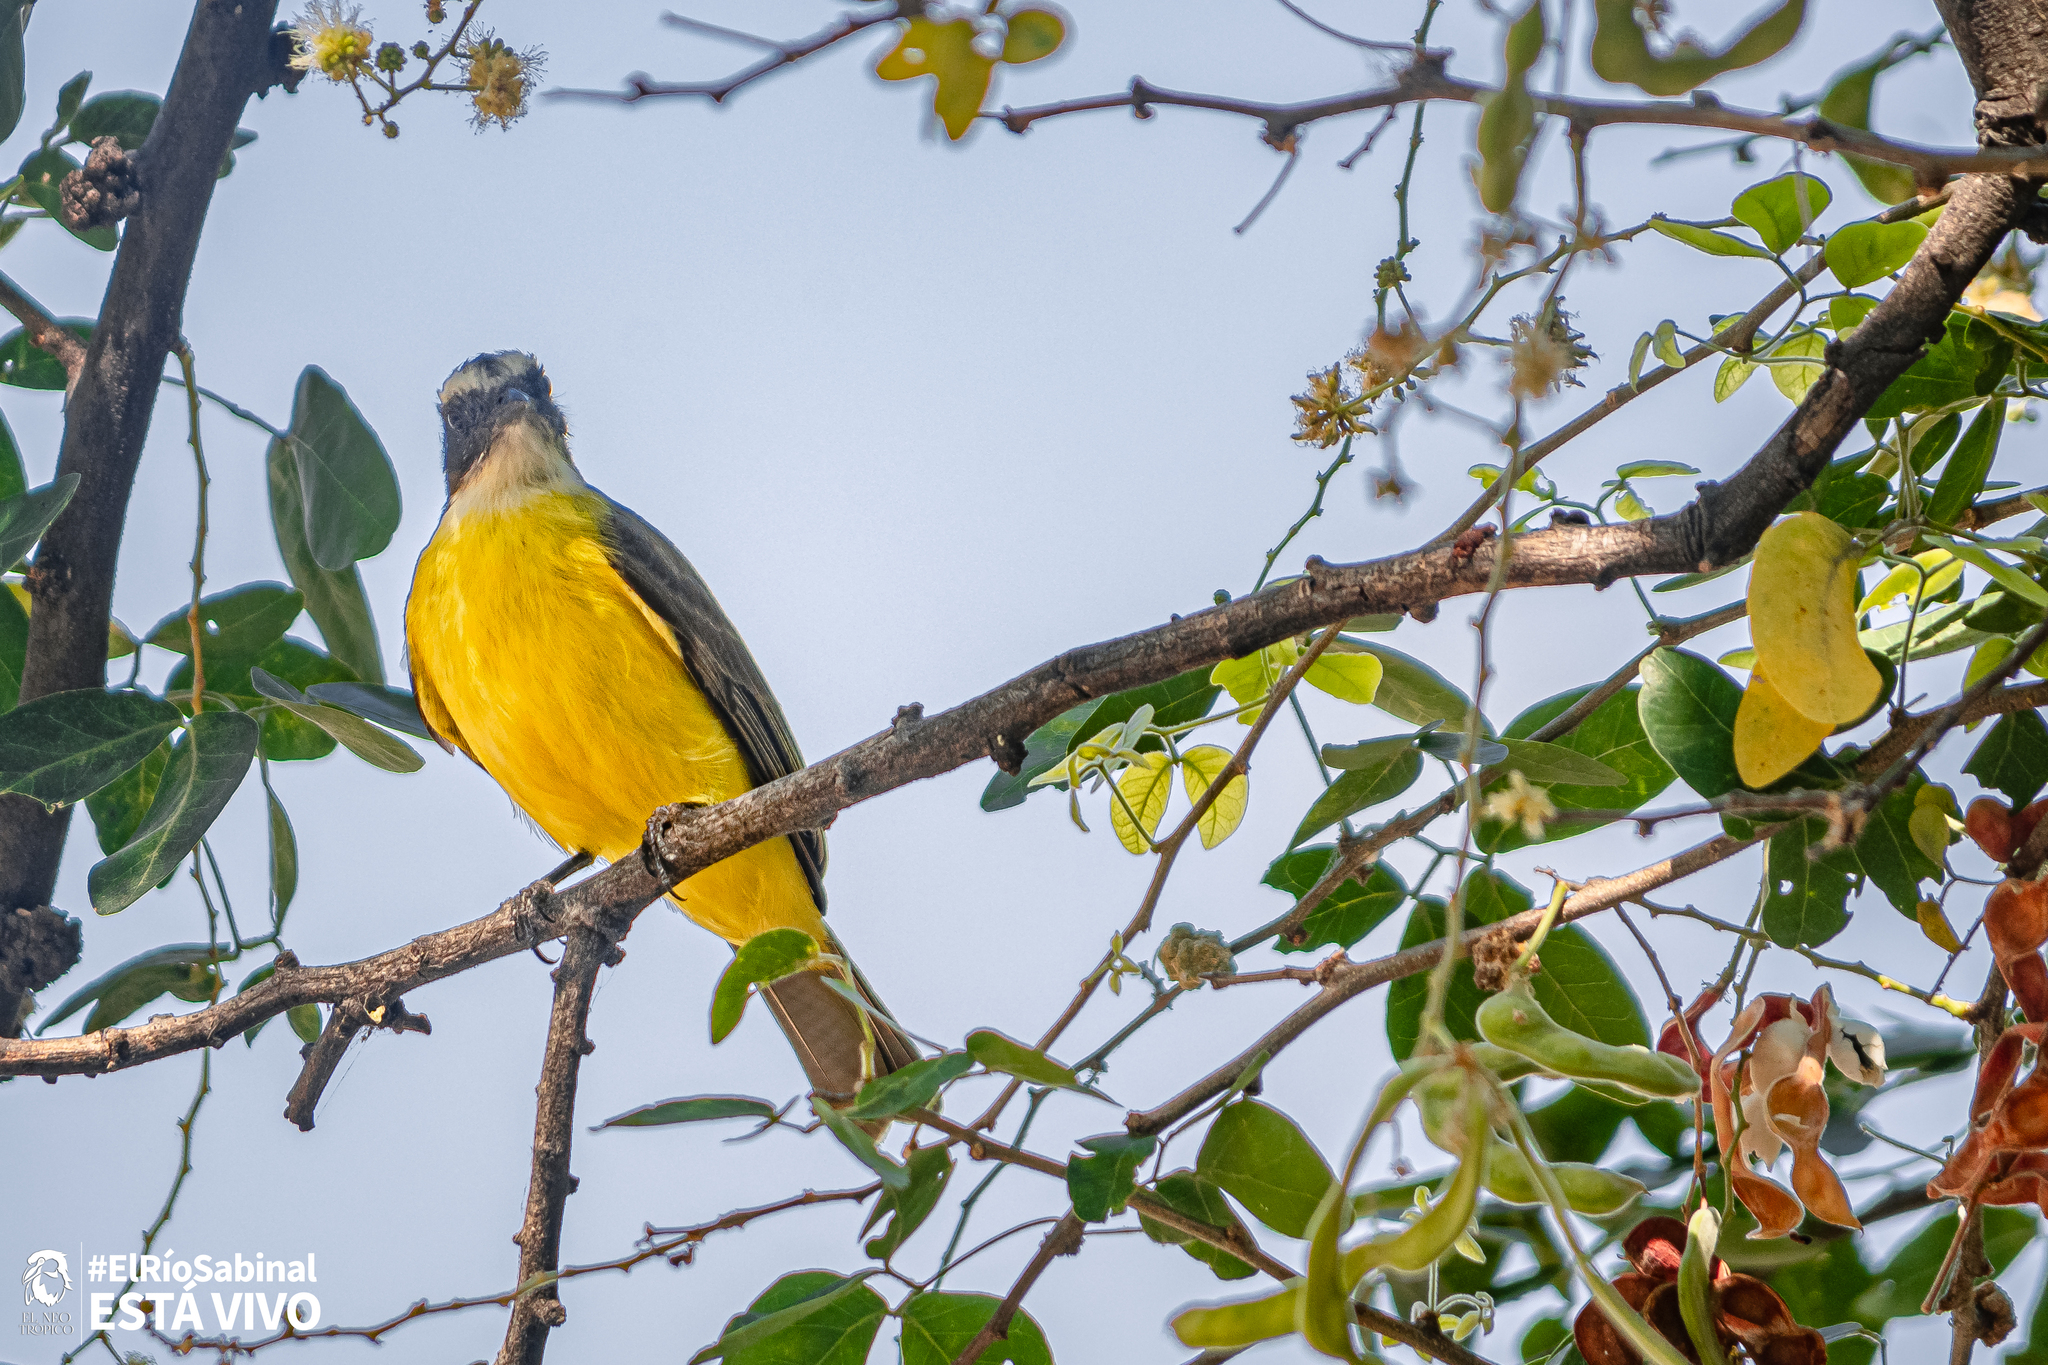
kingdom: Animalia
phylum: Chordata
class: Aves
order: Passeriformes
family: Tyrannidae
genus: Myiozetetes
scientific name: Myiozetetes similis
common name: Social flycatcher
